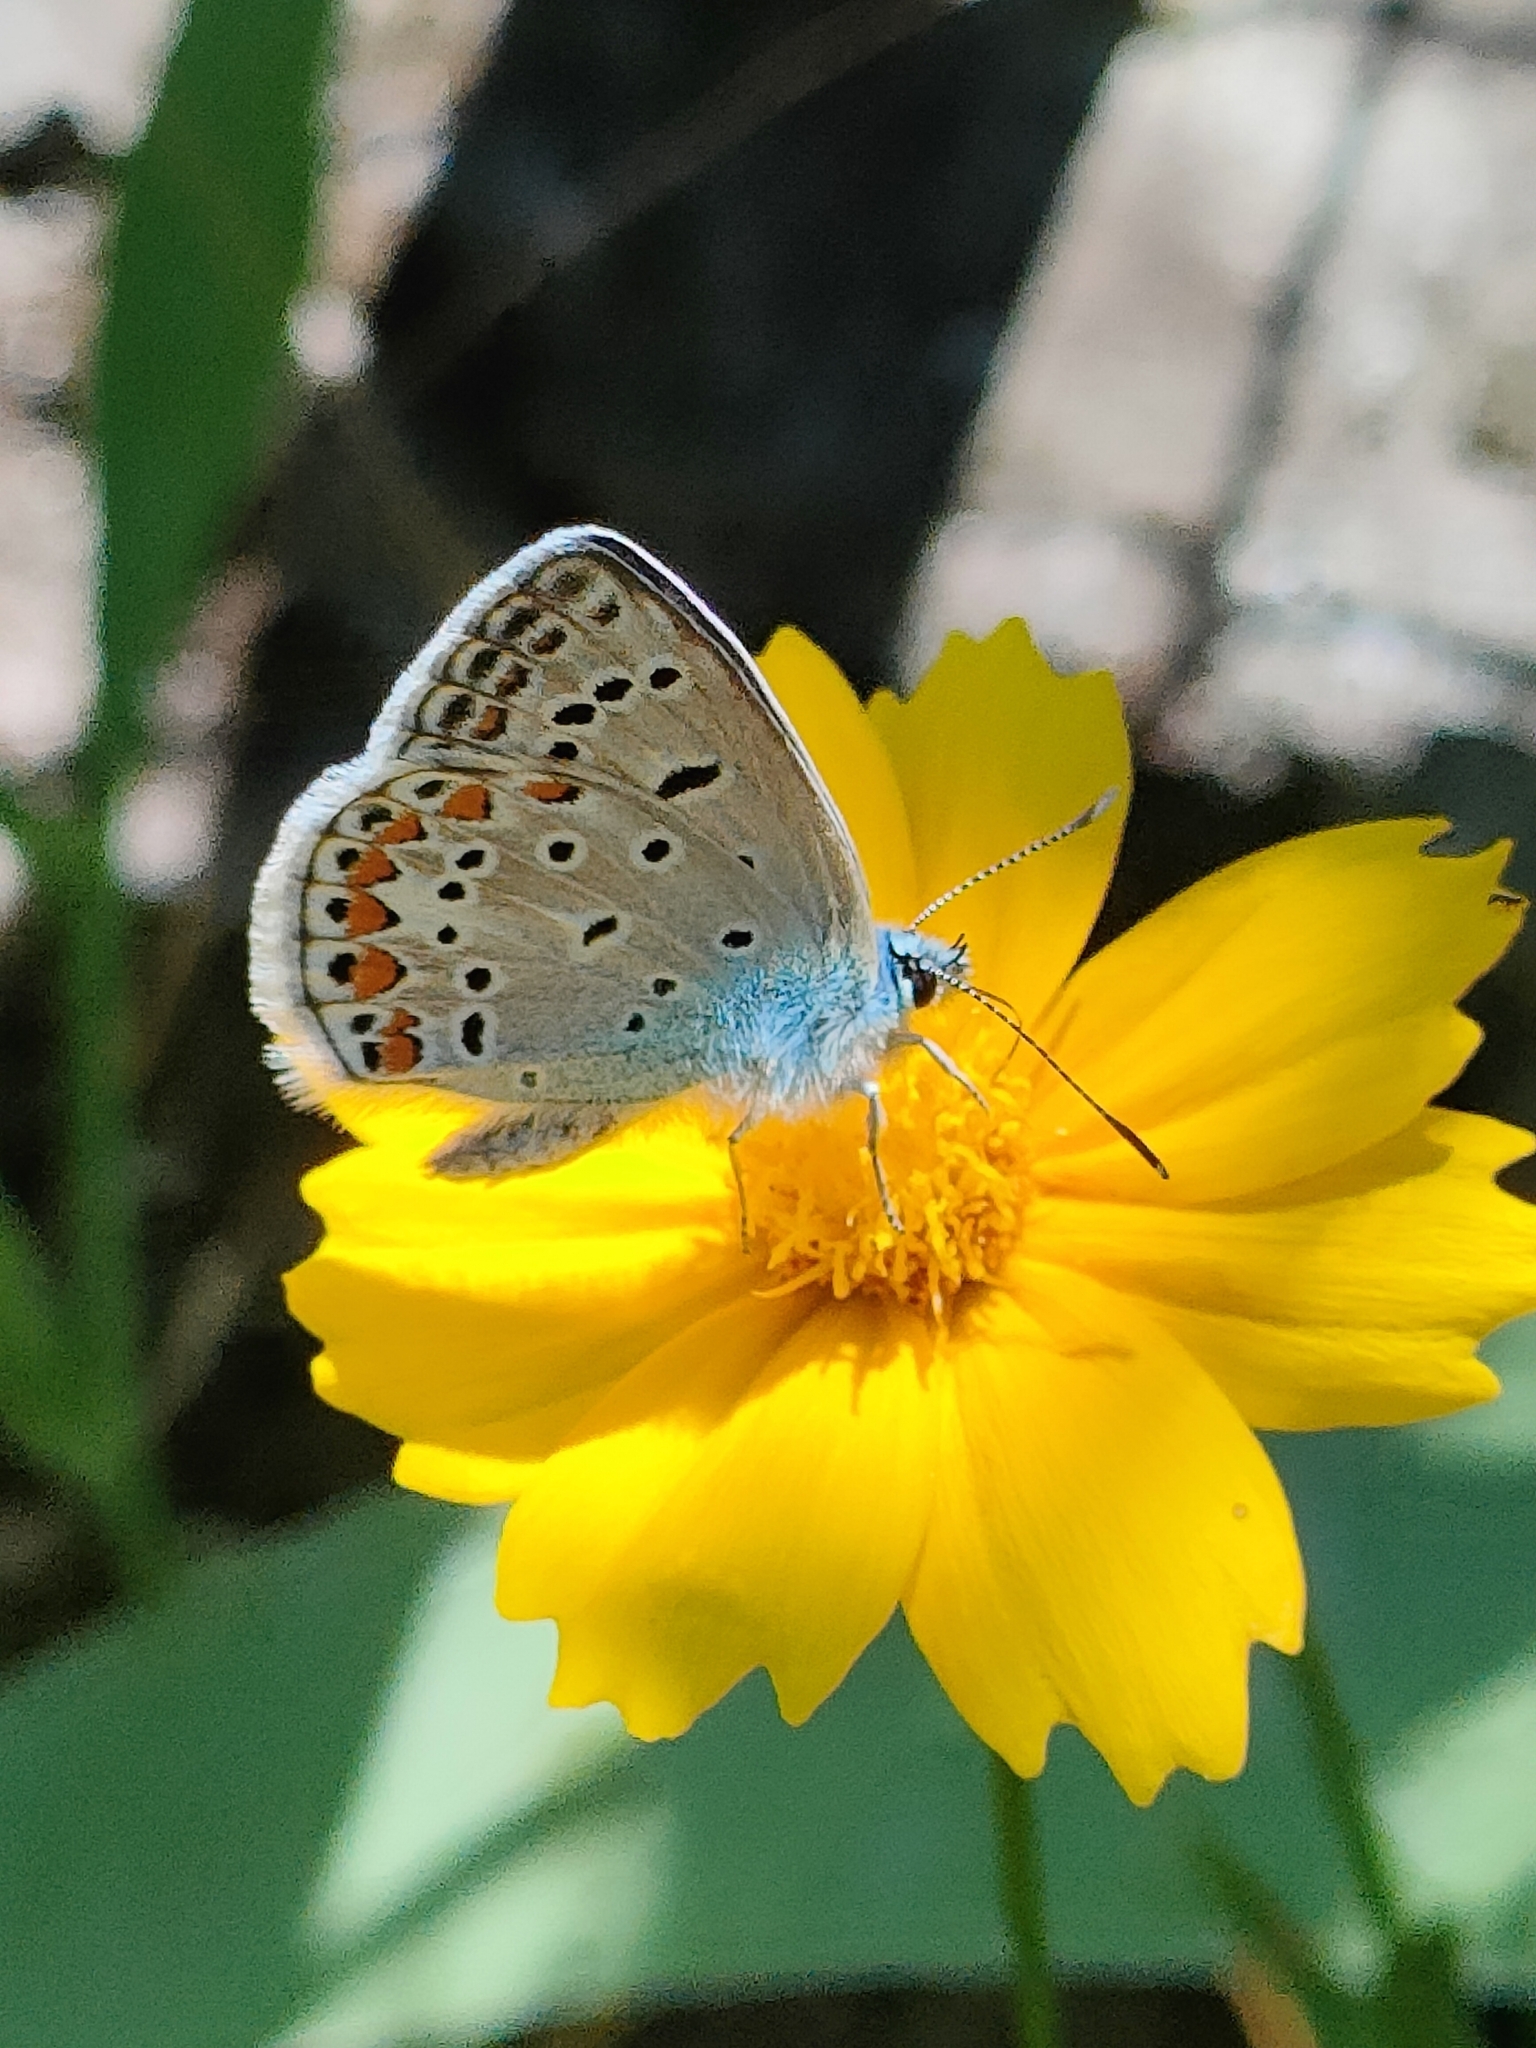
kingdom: Animalia
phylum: Arthropoda
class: Insecta
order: Lepidoptera
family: Lycaenidae
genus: Polyommatus
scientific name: Polyommatus icarus
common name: Common blue
